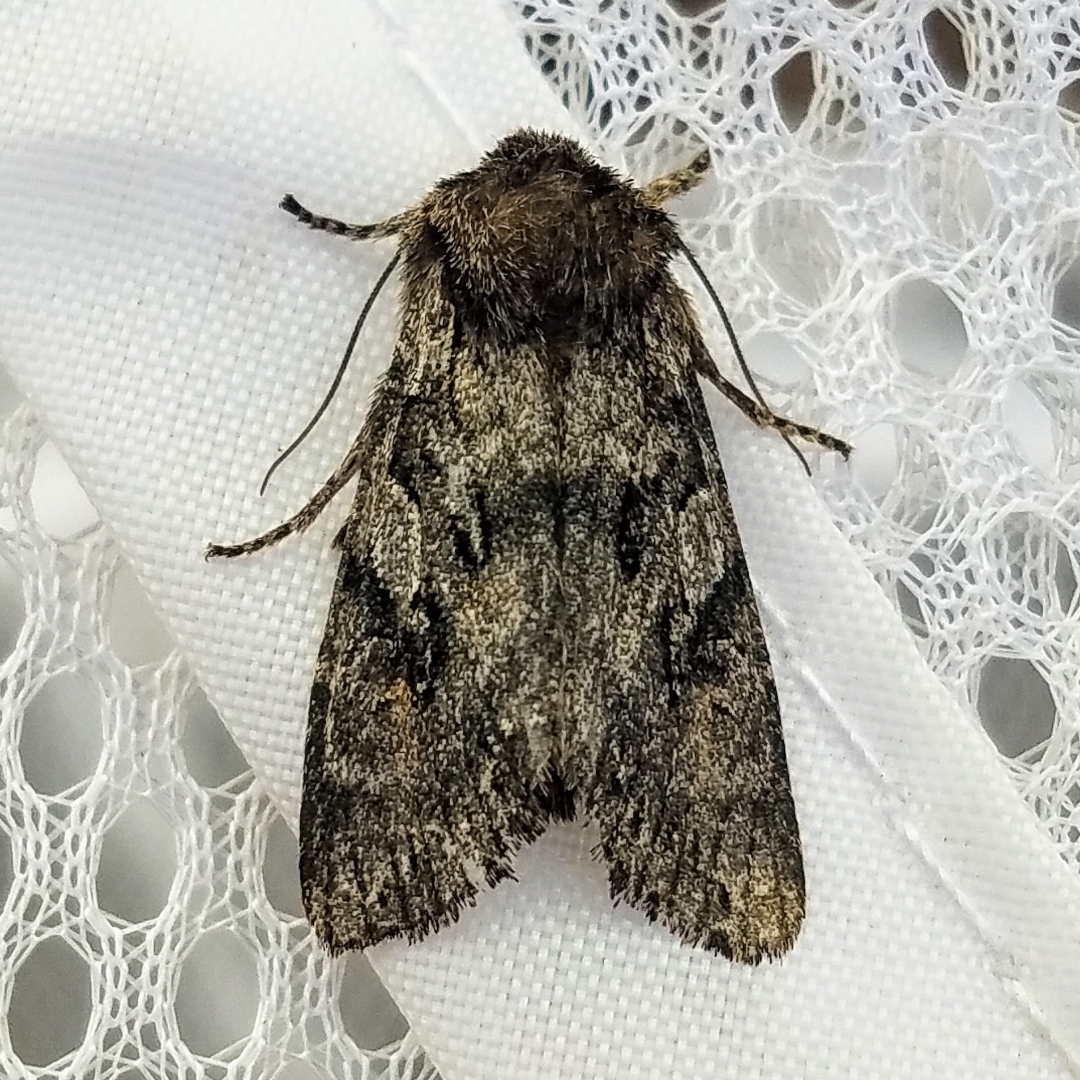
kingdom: Animalia
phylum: Arthropoda
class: Insecta
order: Lepidoptera
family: Noctuidae
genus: Egira
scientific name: Egira hiemalis
